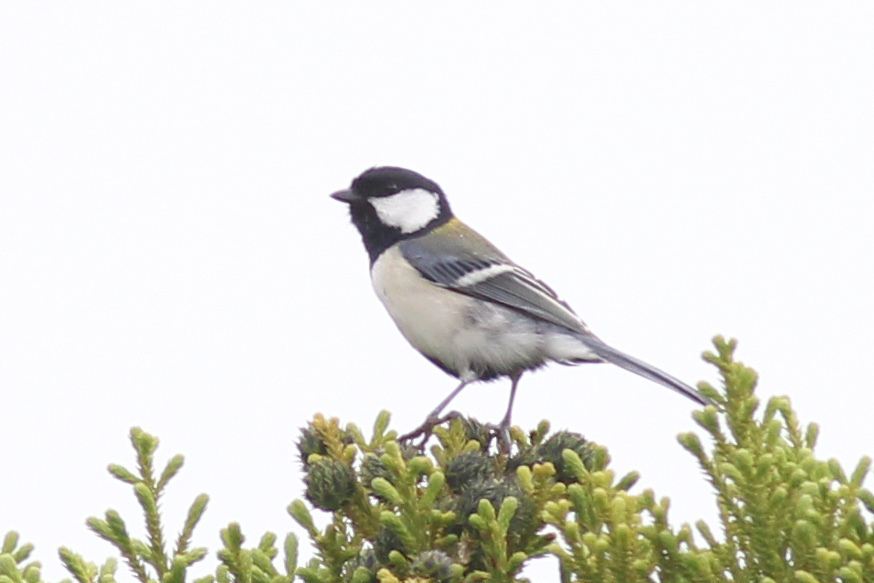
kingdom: Animalia
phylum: Chordata
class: Aves
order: Passeriformes
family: Paridae
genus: Parus
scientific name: Parus minor
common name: Japanese tit
